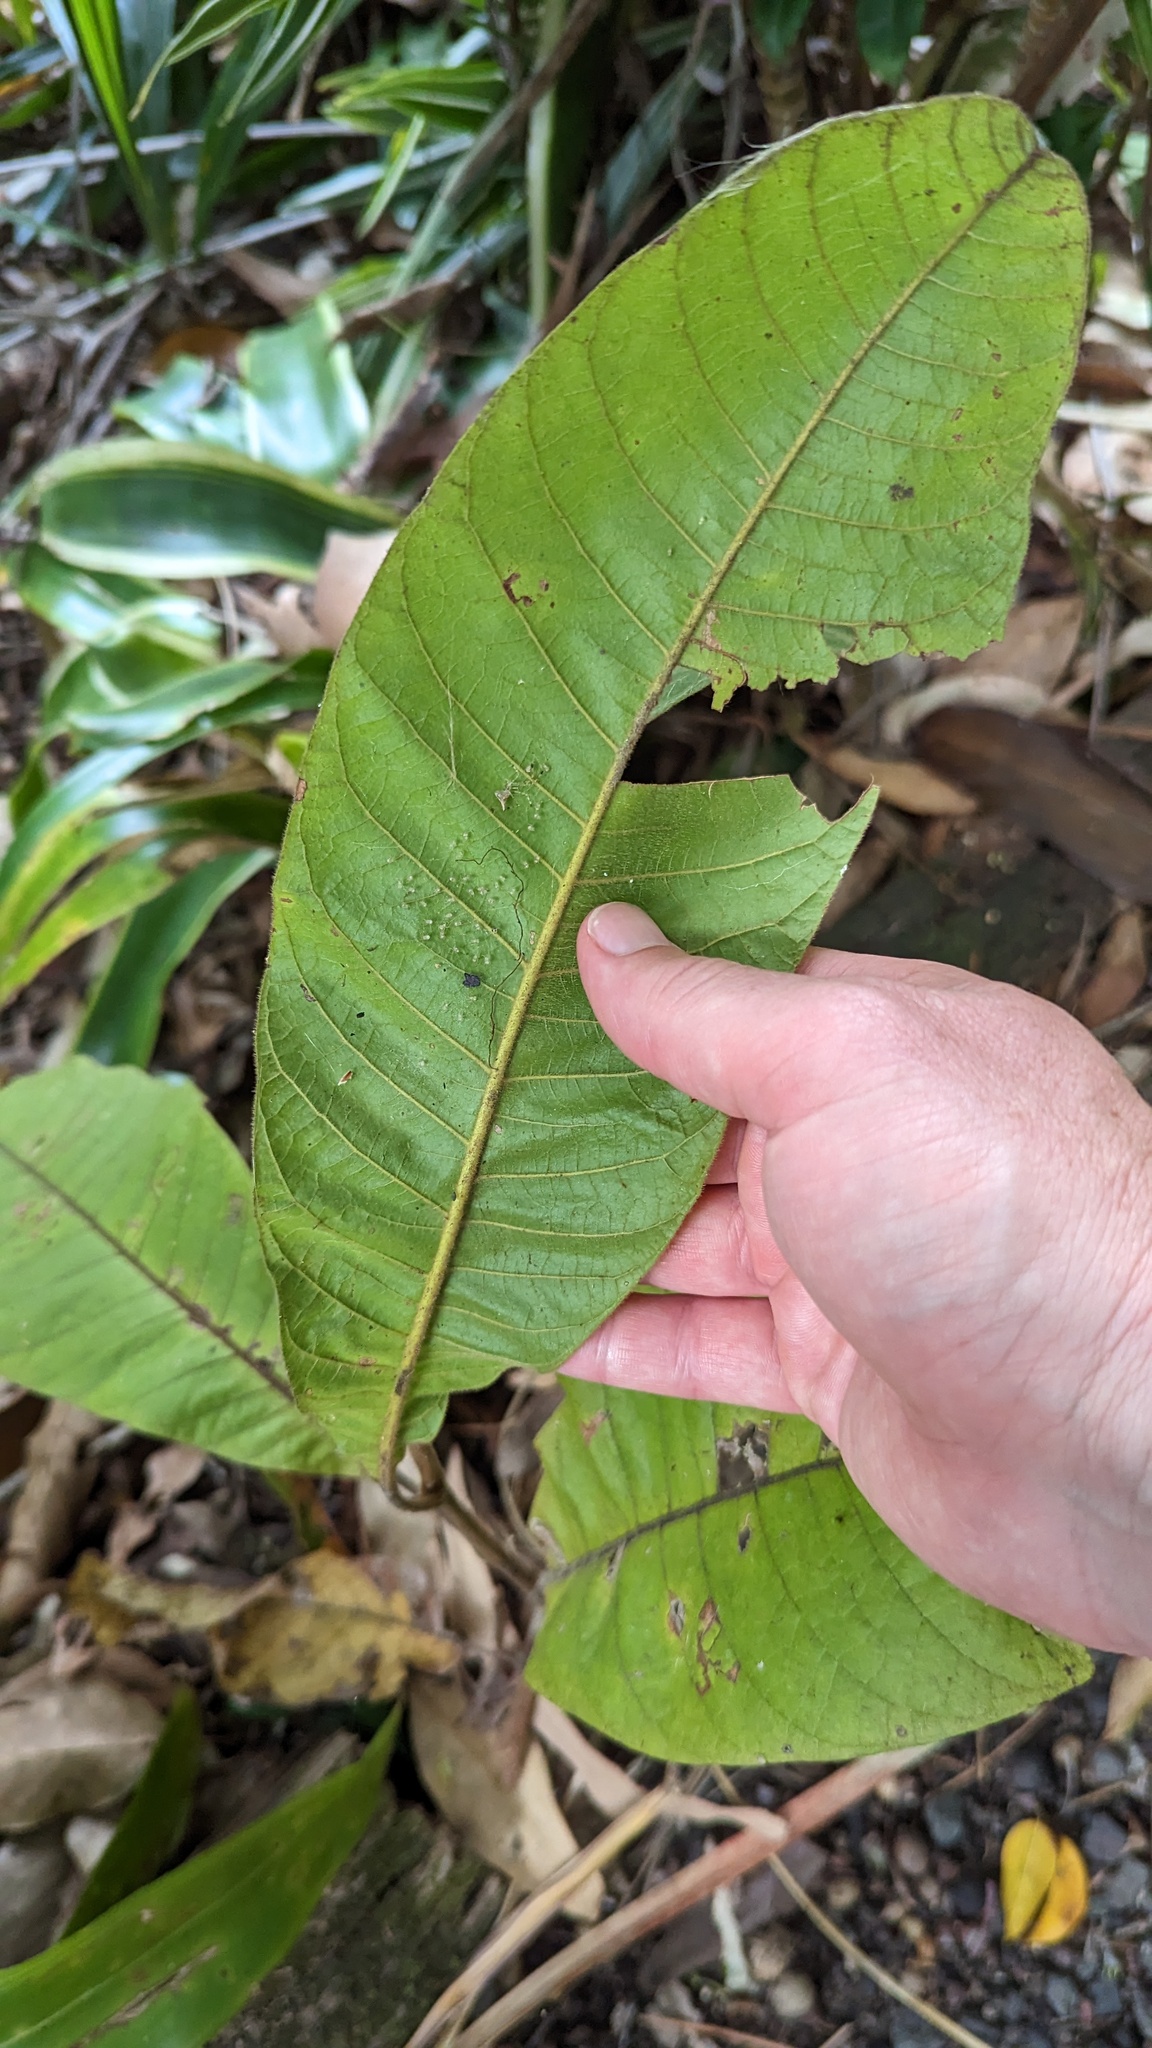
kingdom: Plantae
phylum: Tracheophyta
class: Magnoliopsida
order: Sapindales
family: Sapindaceae
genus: Diploglottis
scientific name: Diploglottis australis
